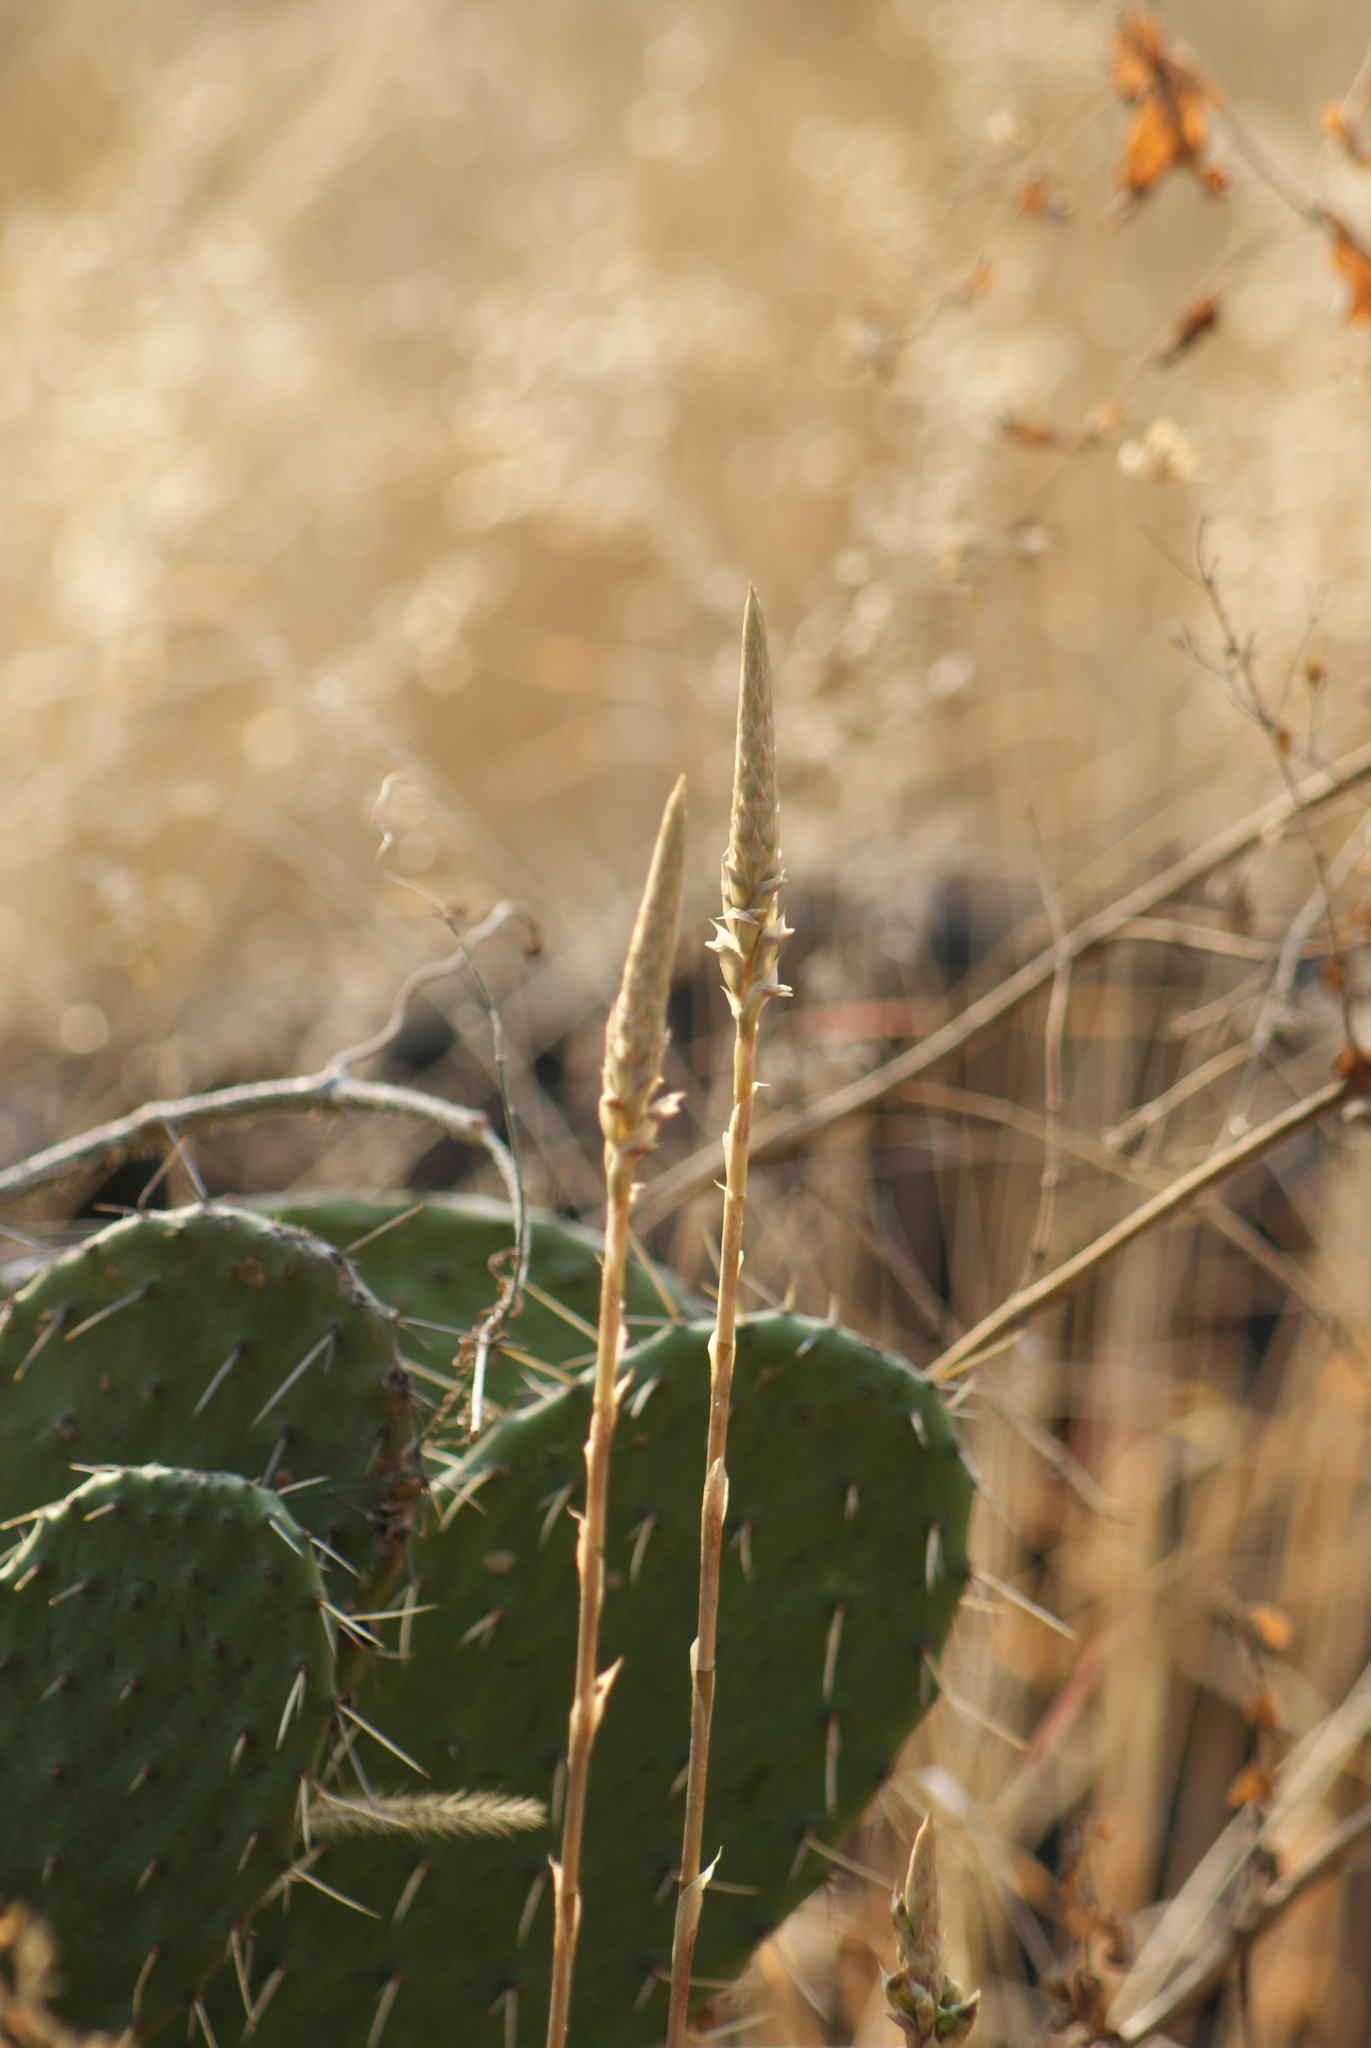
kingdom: Plantae
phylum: Tracheophyta
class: Liliopsida
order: Asparagales
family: Orchidaceae
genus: Aulosepalum
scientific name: Aulosepalum pyramidale
